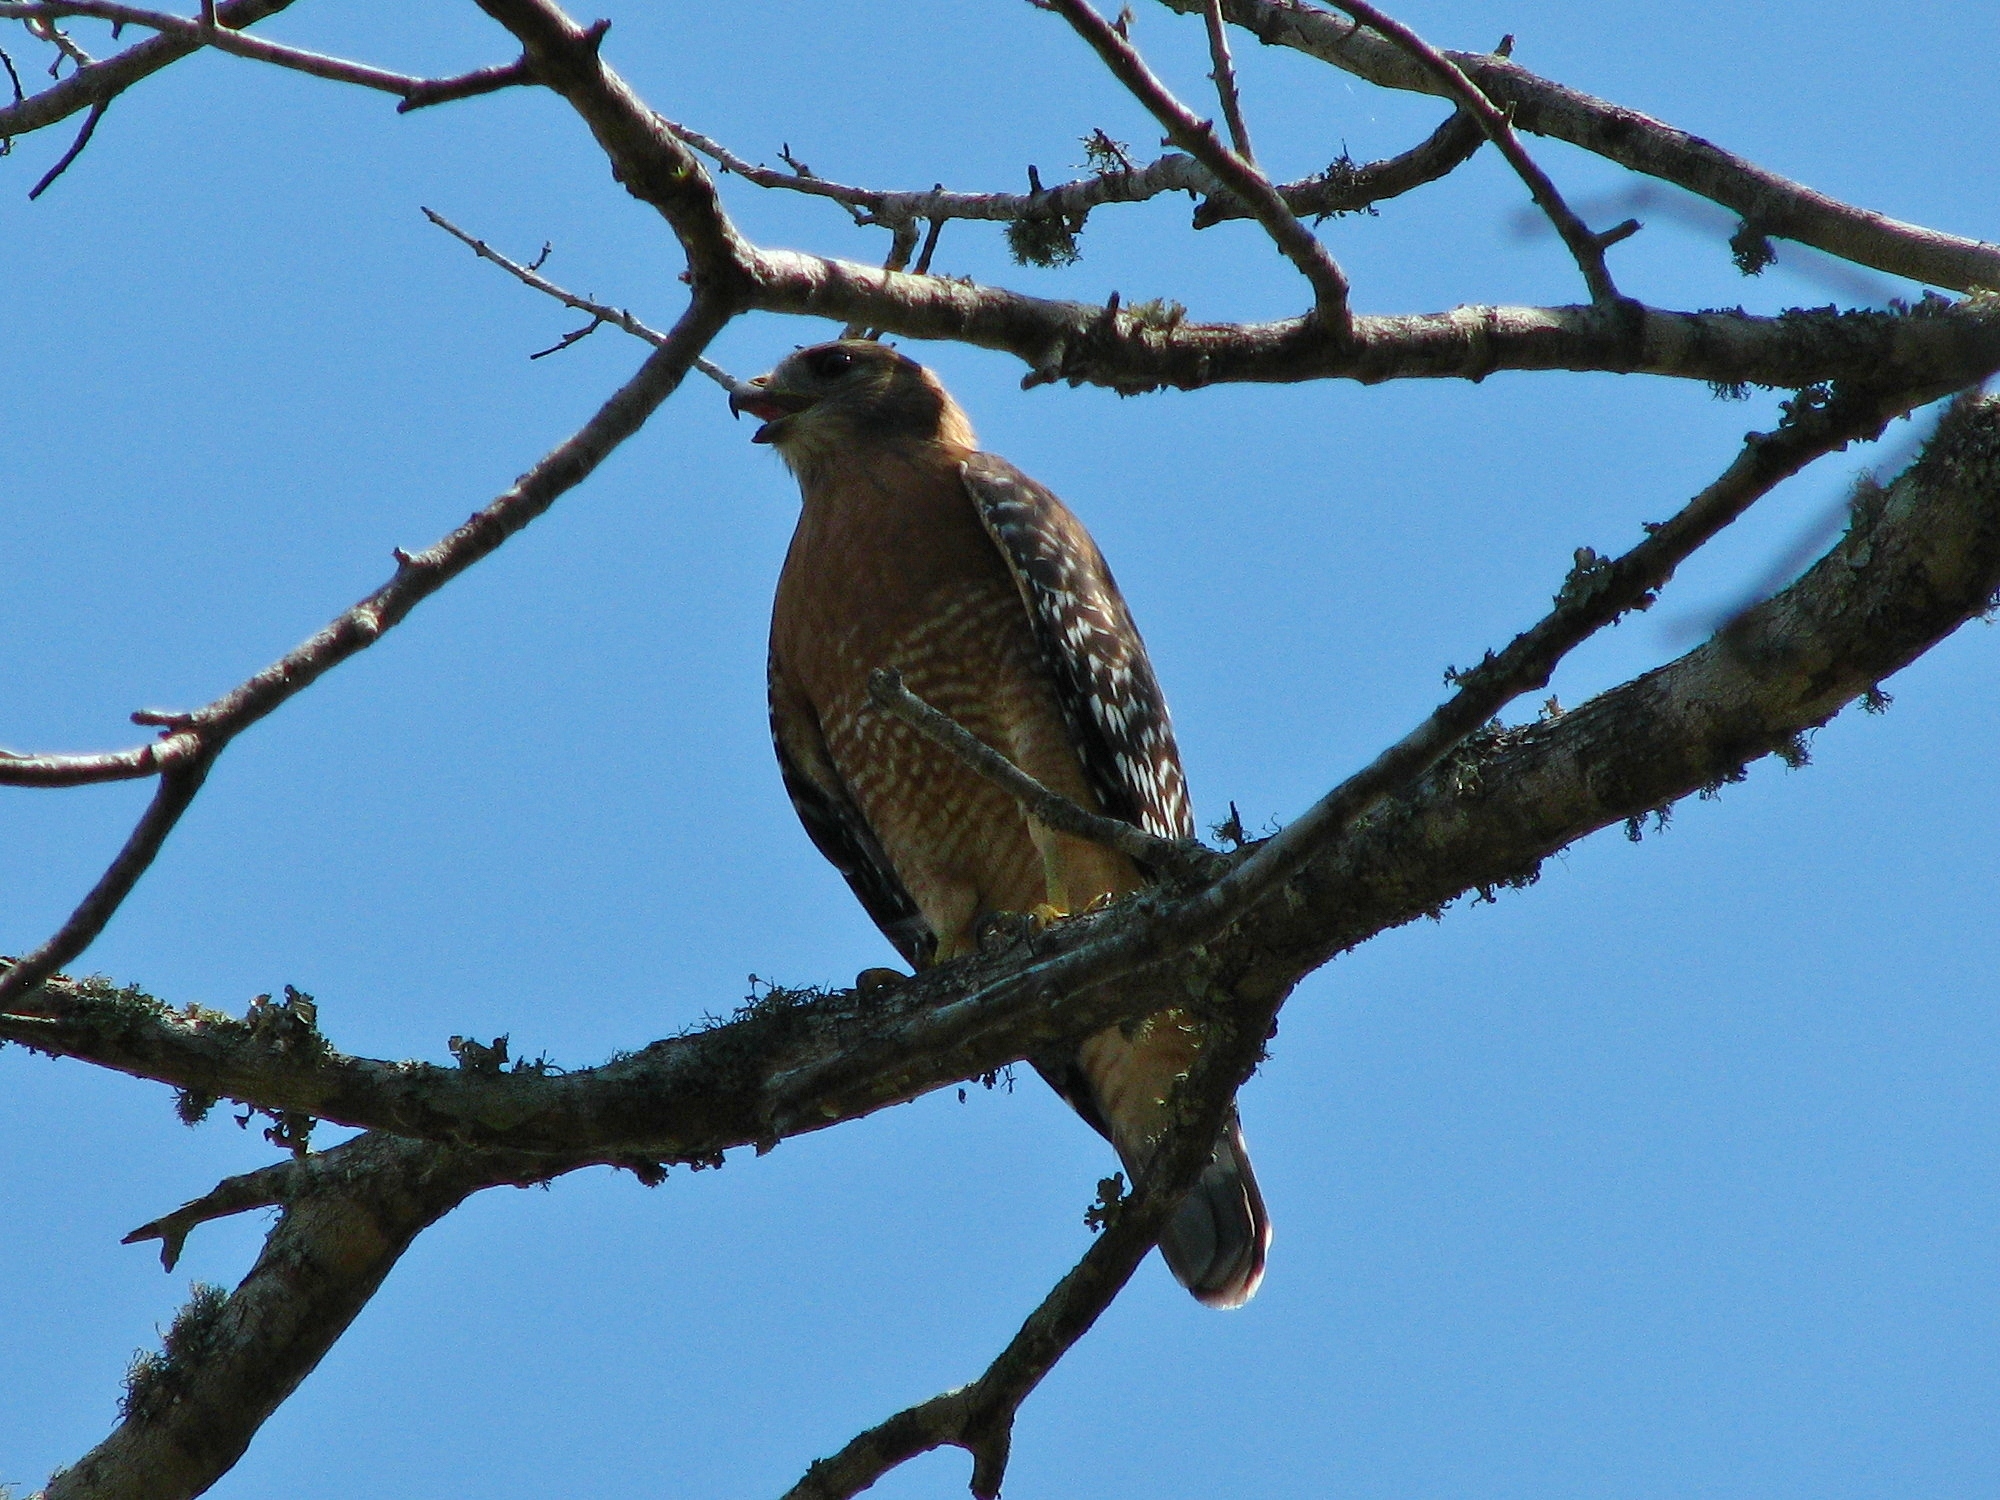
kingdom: Animalia
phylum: Chordata
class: Aves
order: Accipitriformes
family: Accipitridae
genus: Buteo
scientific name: Buteo lineatus
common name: Red-shouldered hawk
